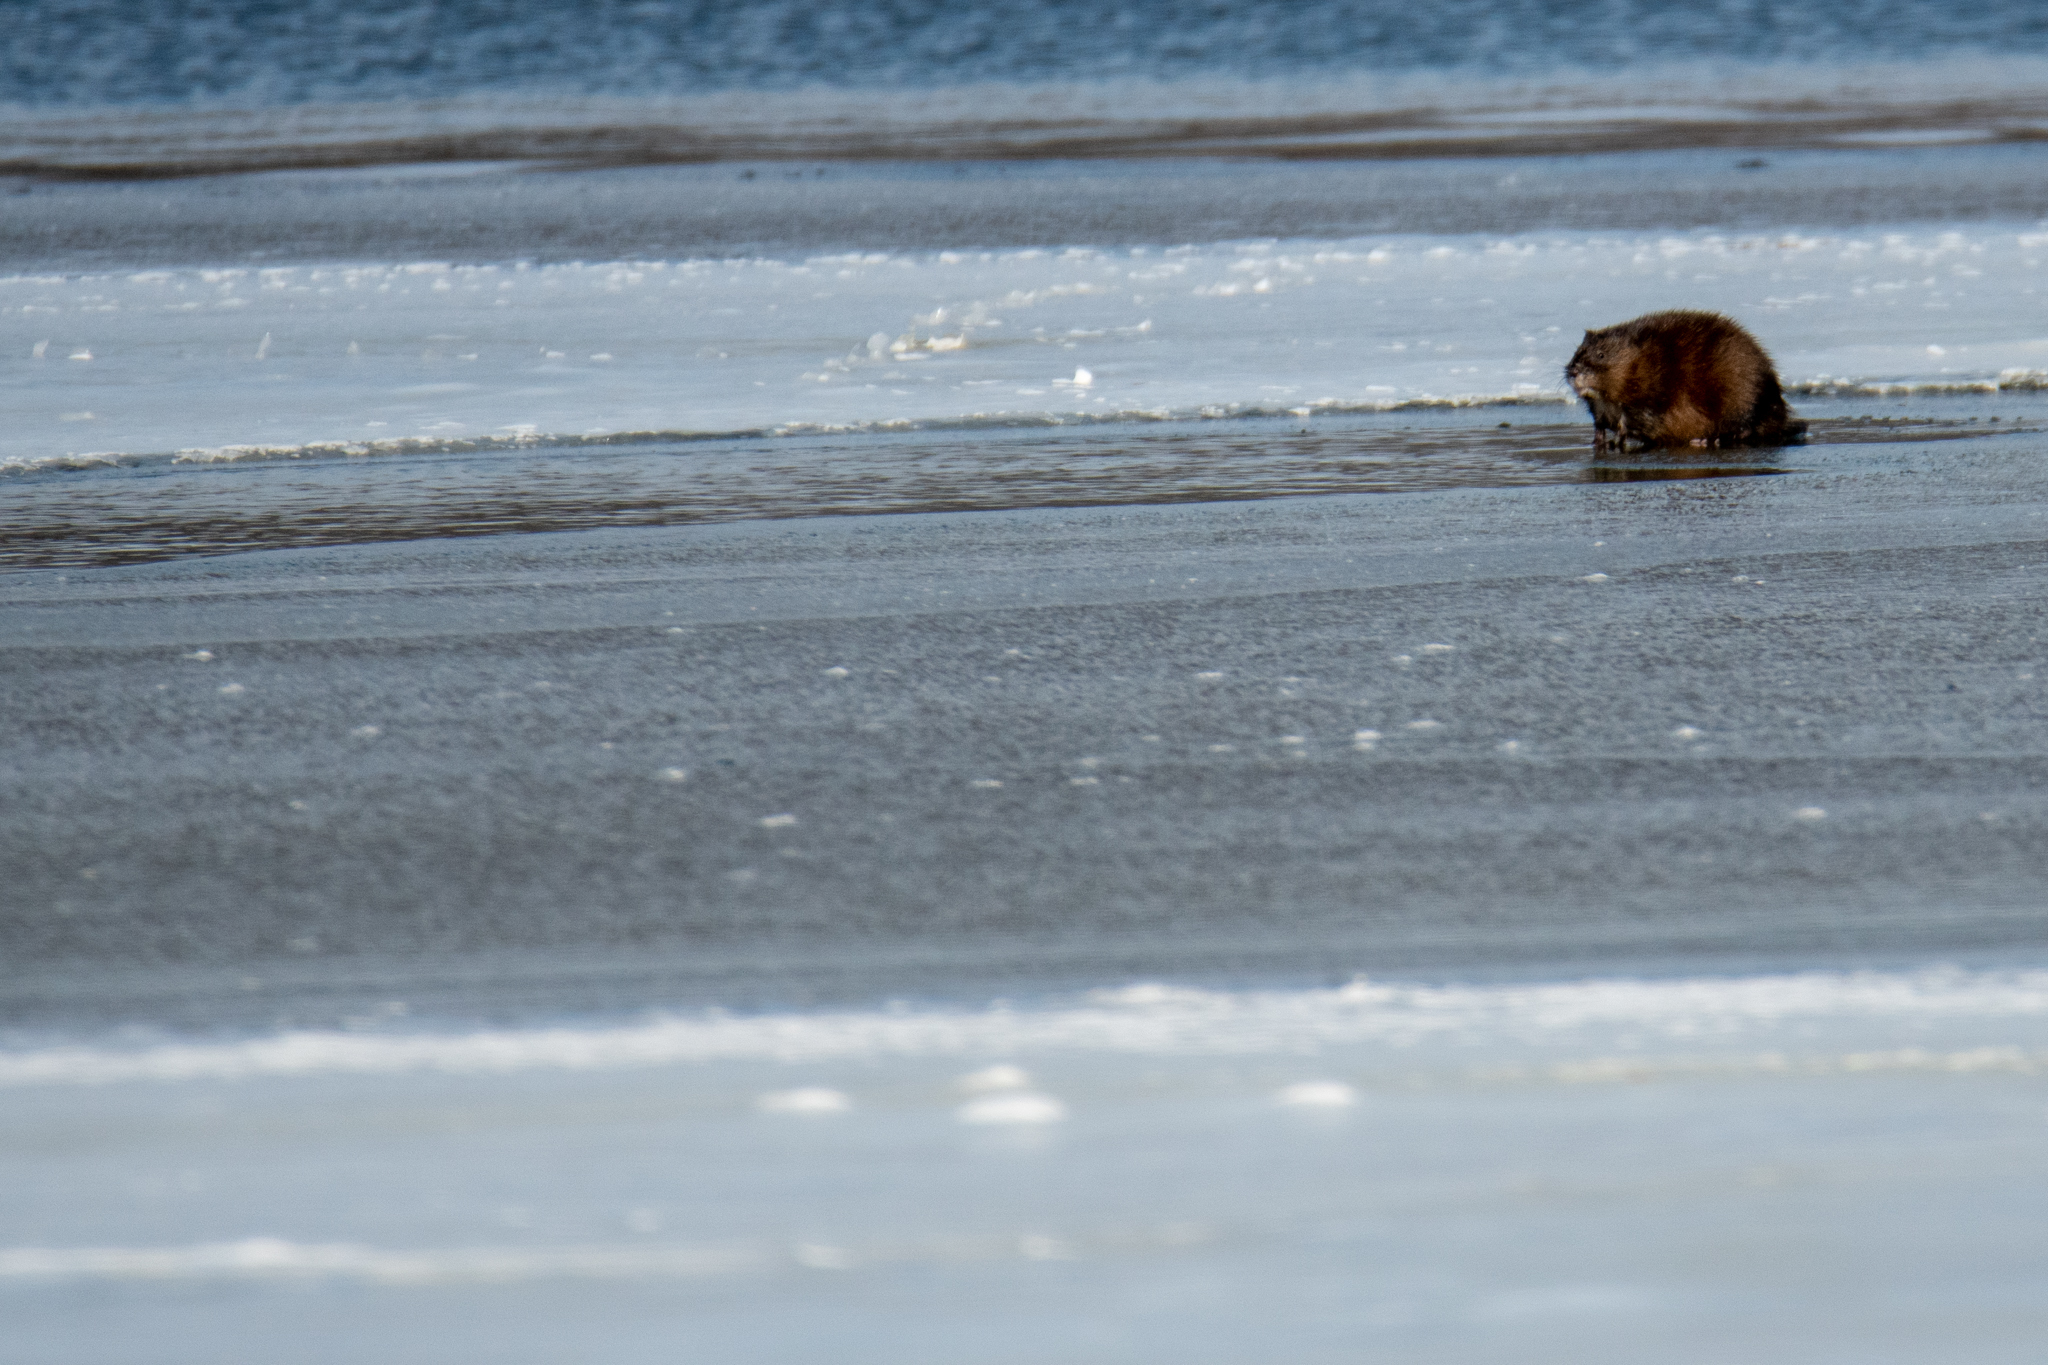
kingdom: Animalia
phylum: Chordata
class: Mammalia
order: Rodentia
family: Cricetidae
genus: Ondatra
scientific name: Ondatra zibethicus
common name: Muskrat
